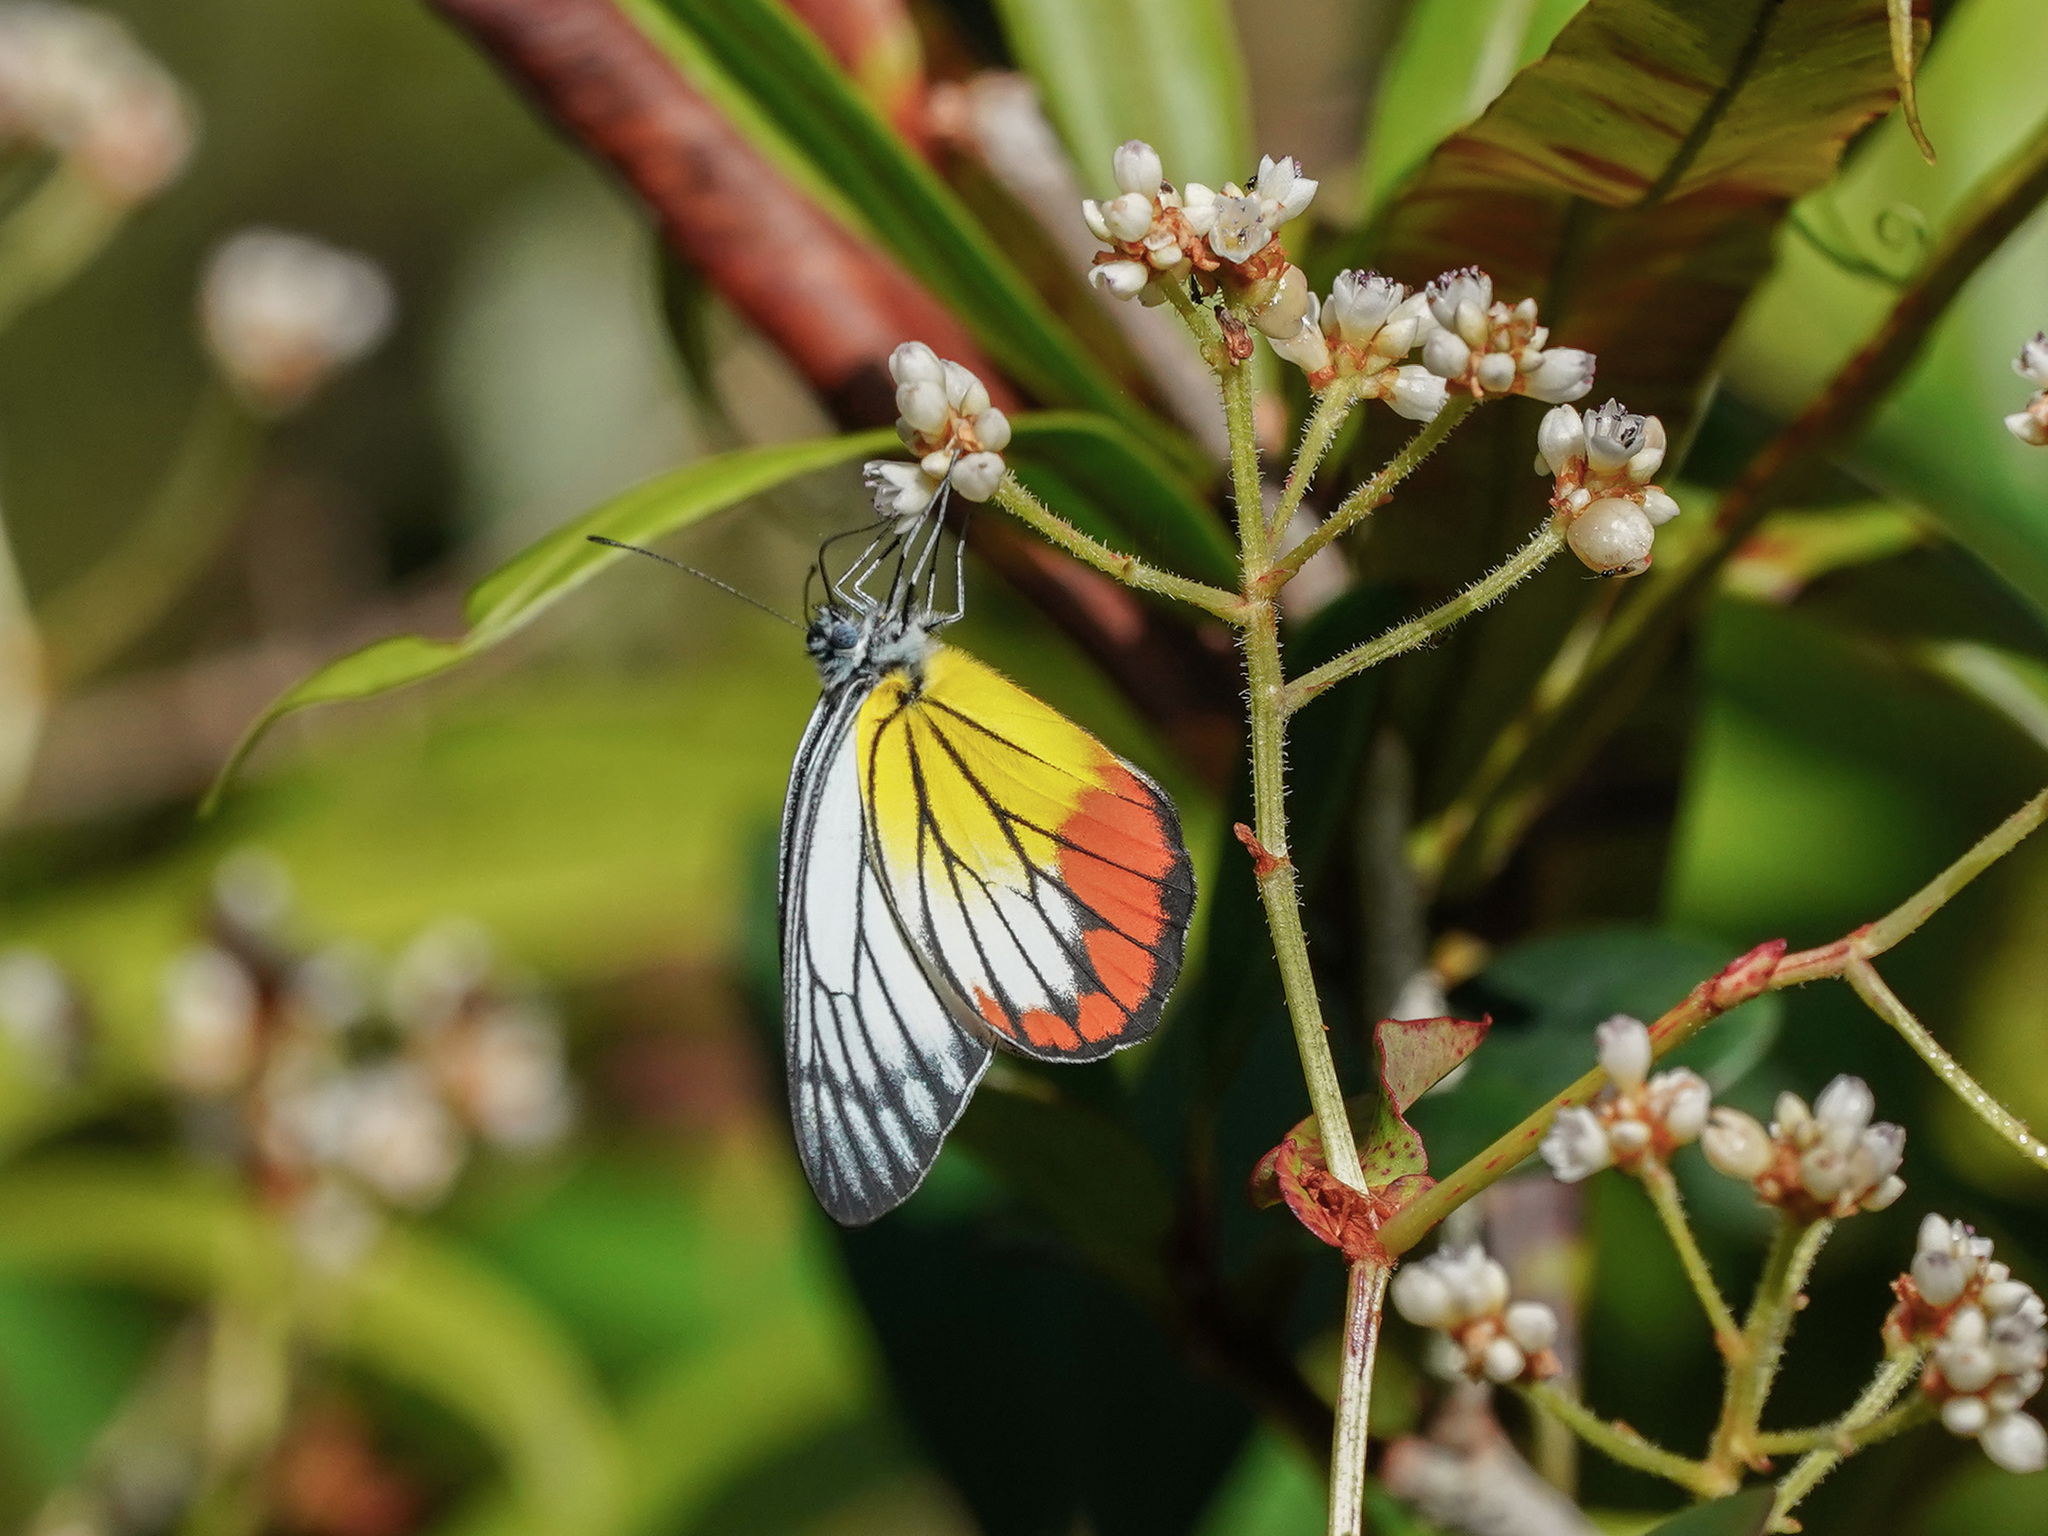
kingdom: Animalia
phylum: Arthropoda
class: Insecta
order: Lepidoptera
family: Pieridae
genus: Delias
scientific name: Delias hyparete
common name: Painted jezebel
